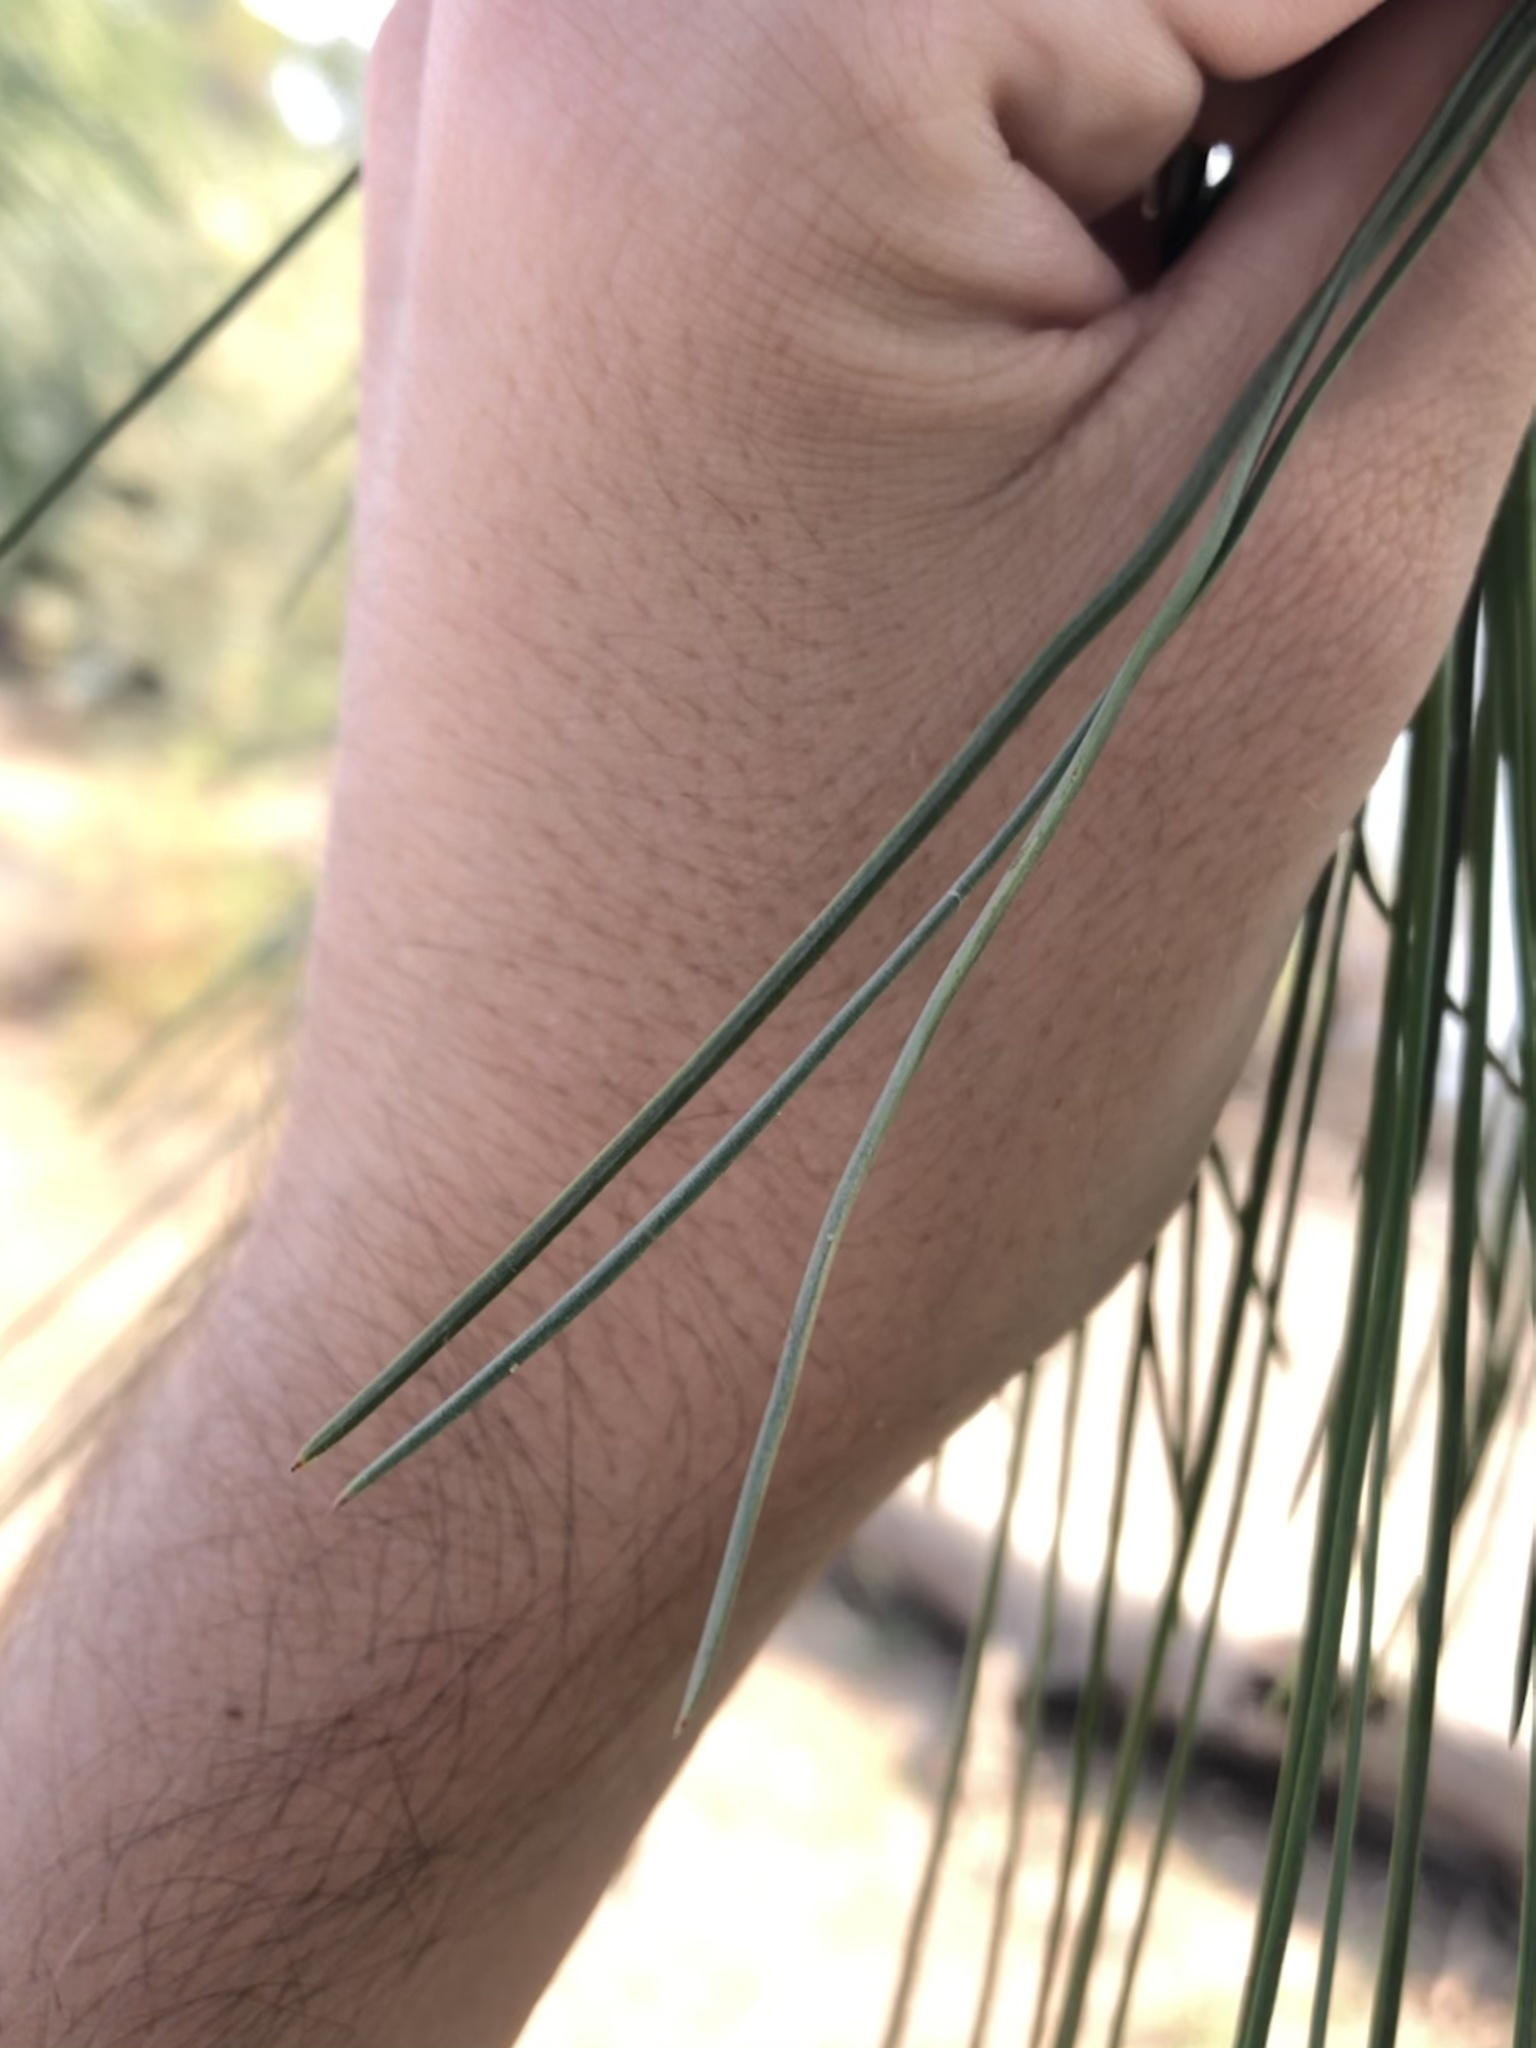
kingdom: Plantae
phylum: Tracheophyta
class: Pinopsida
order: Pinales
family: Pinaceae
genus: Pinus
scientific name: Pinus ponderosa
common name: Western yellow-pine
